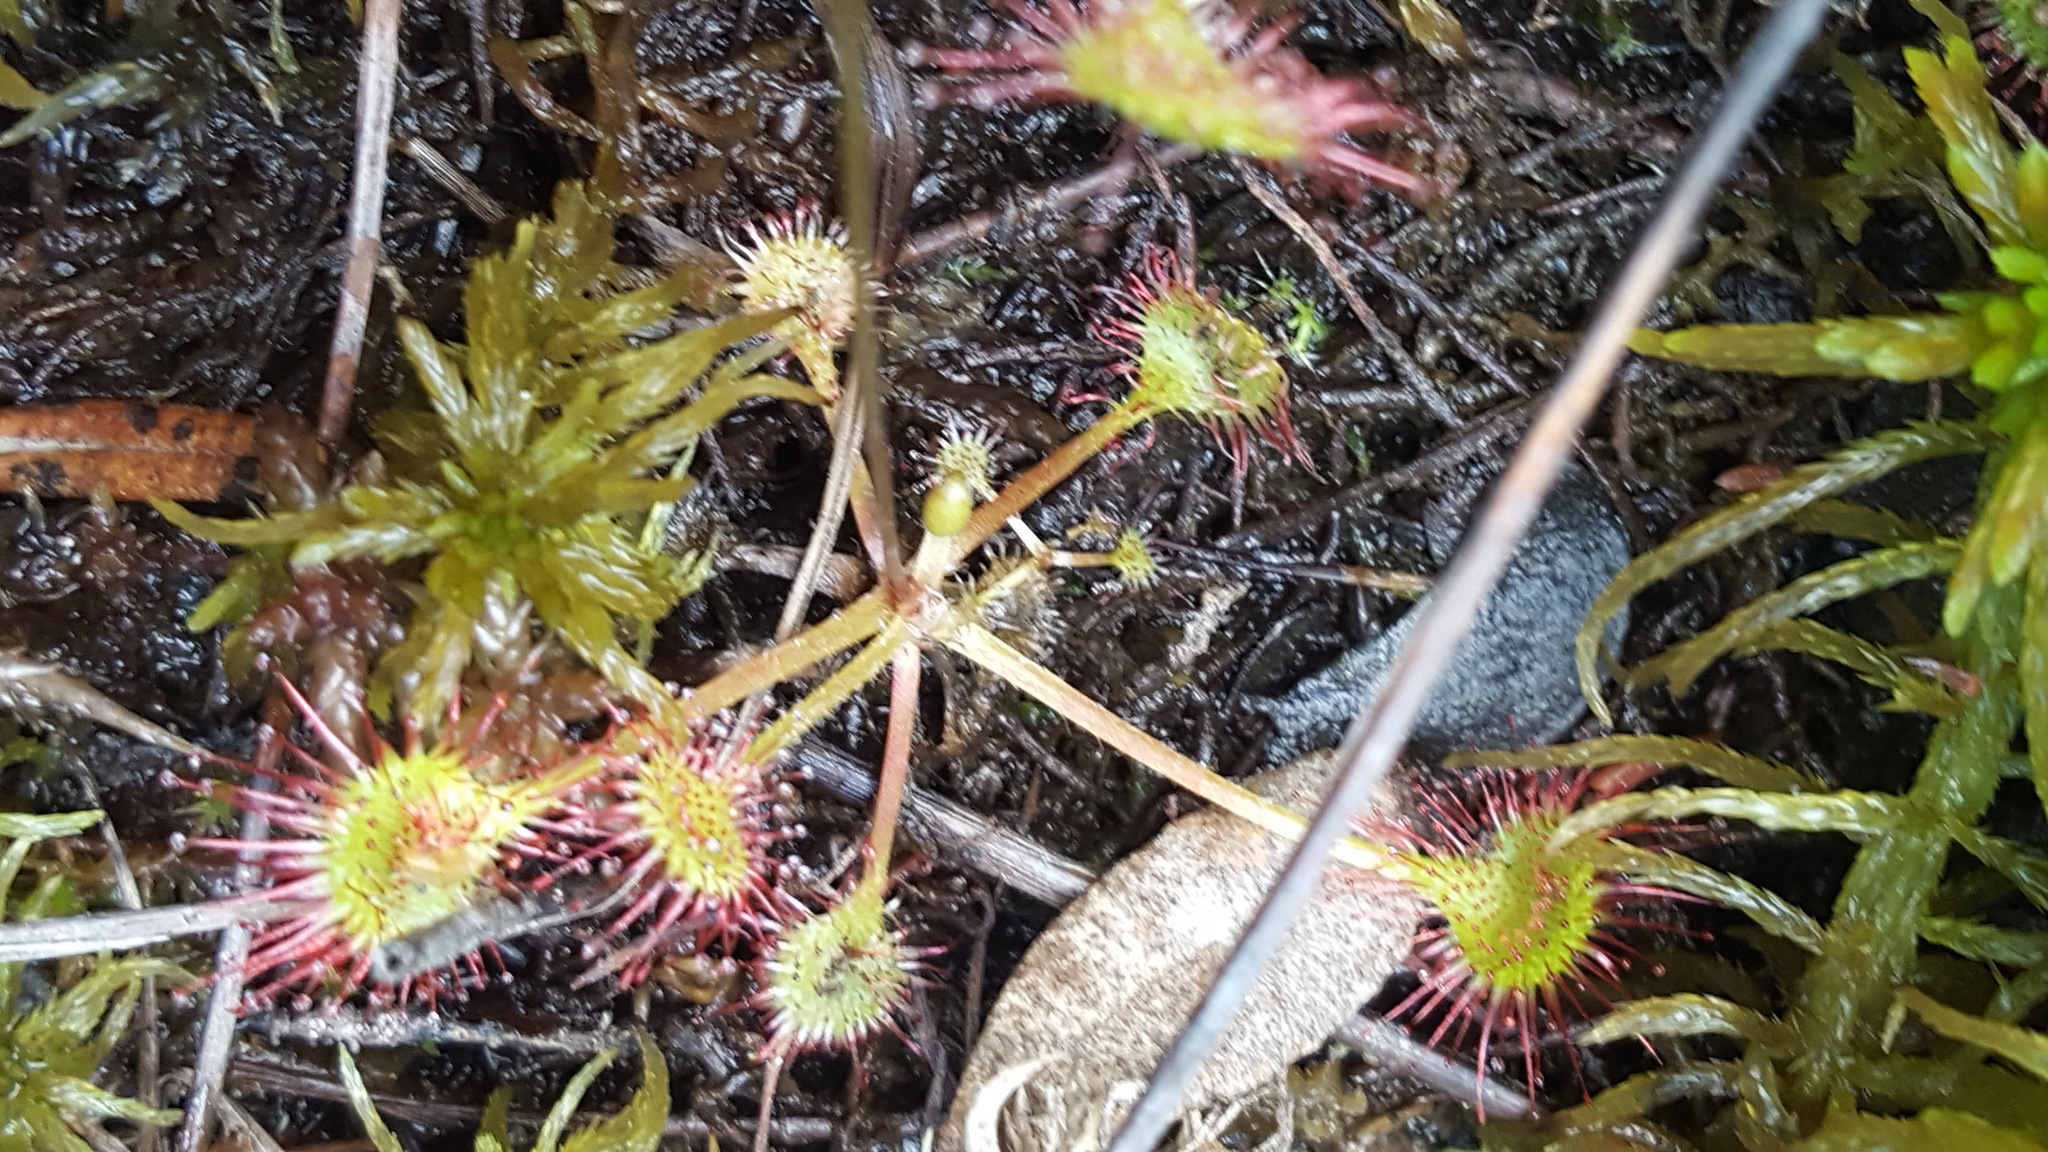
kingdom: Plantae
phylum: Tracheophyta
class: Magnoliopsida
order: Caryophyllales
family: Droseraceae
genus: Drosera
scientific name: Drosera rotundifolia
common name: Round-leaved sundew
